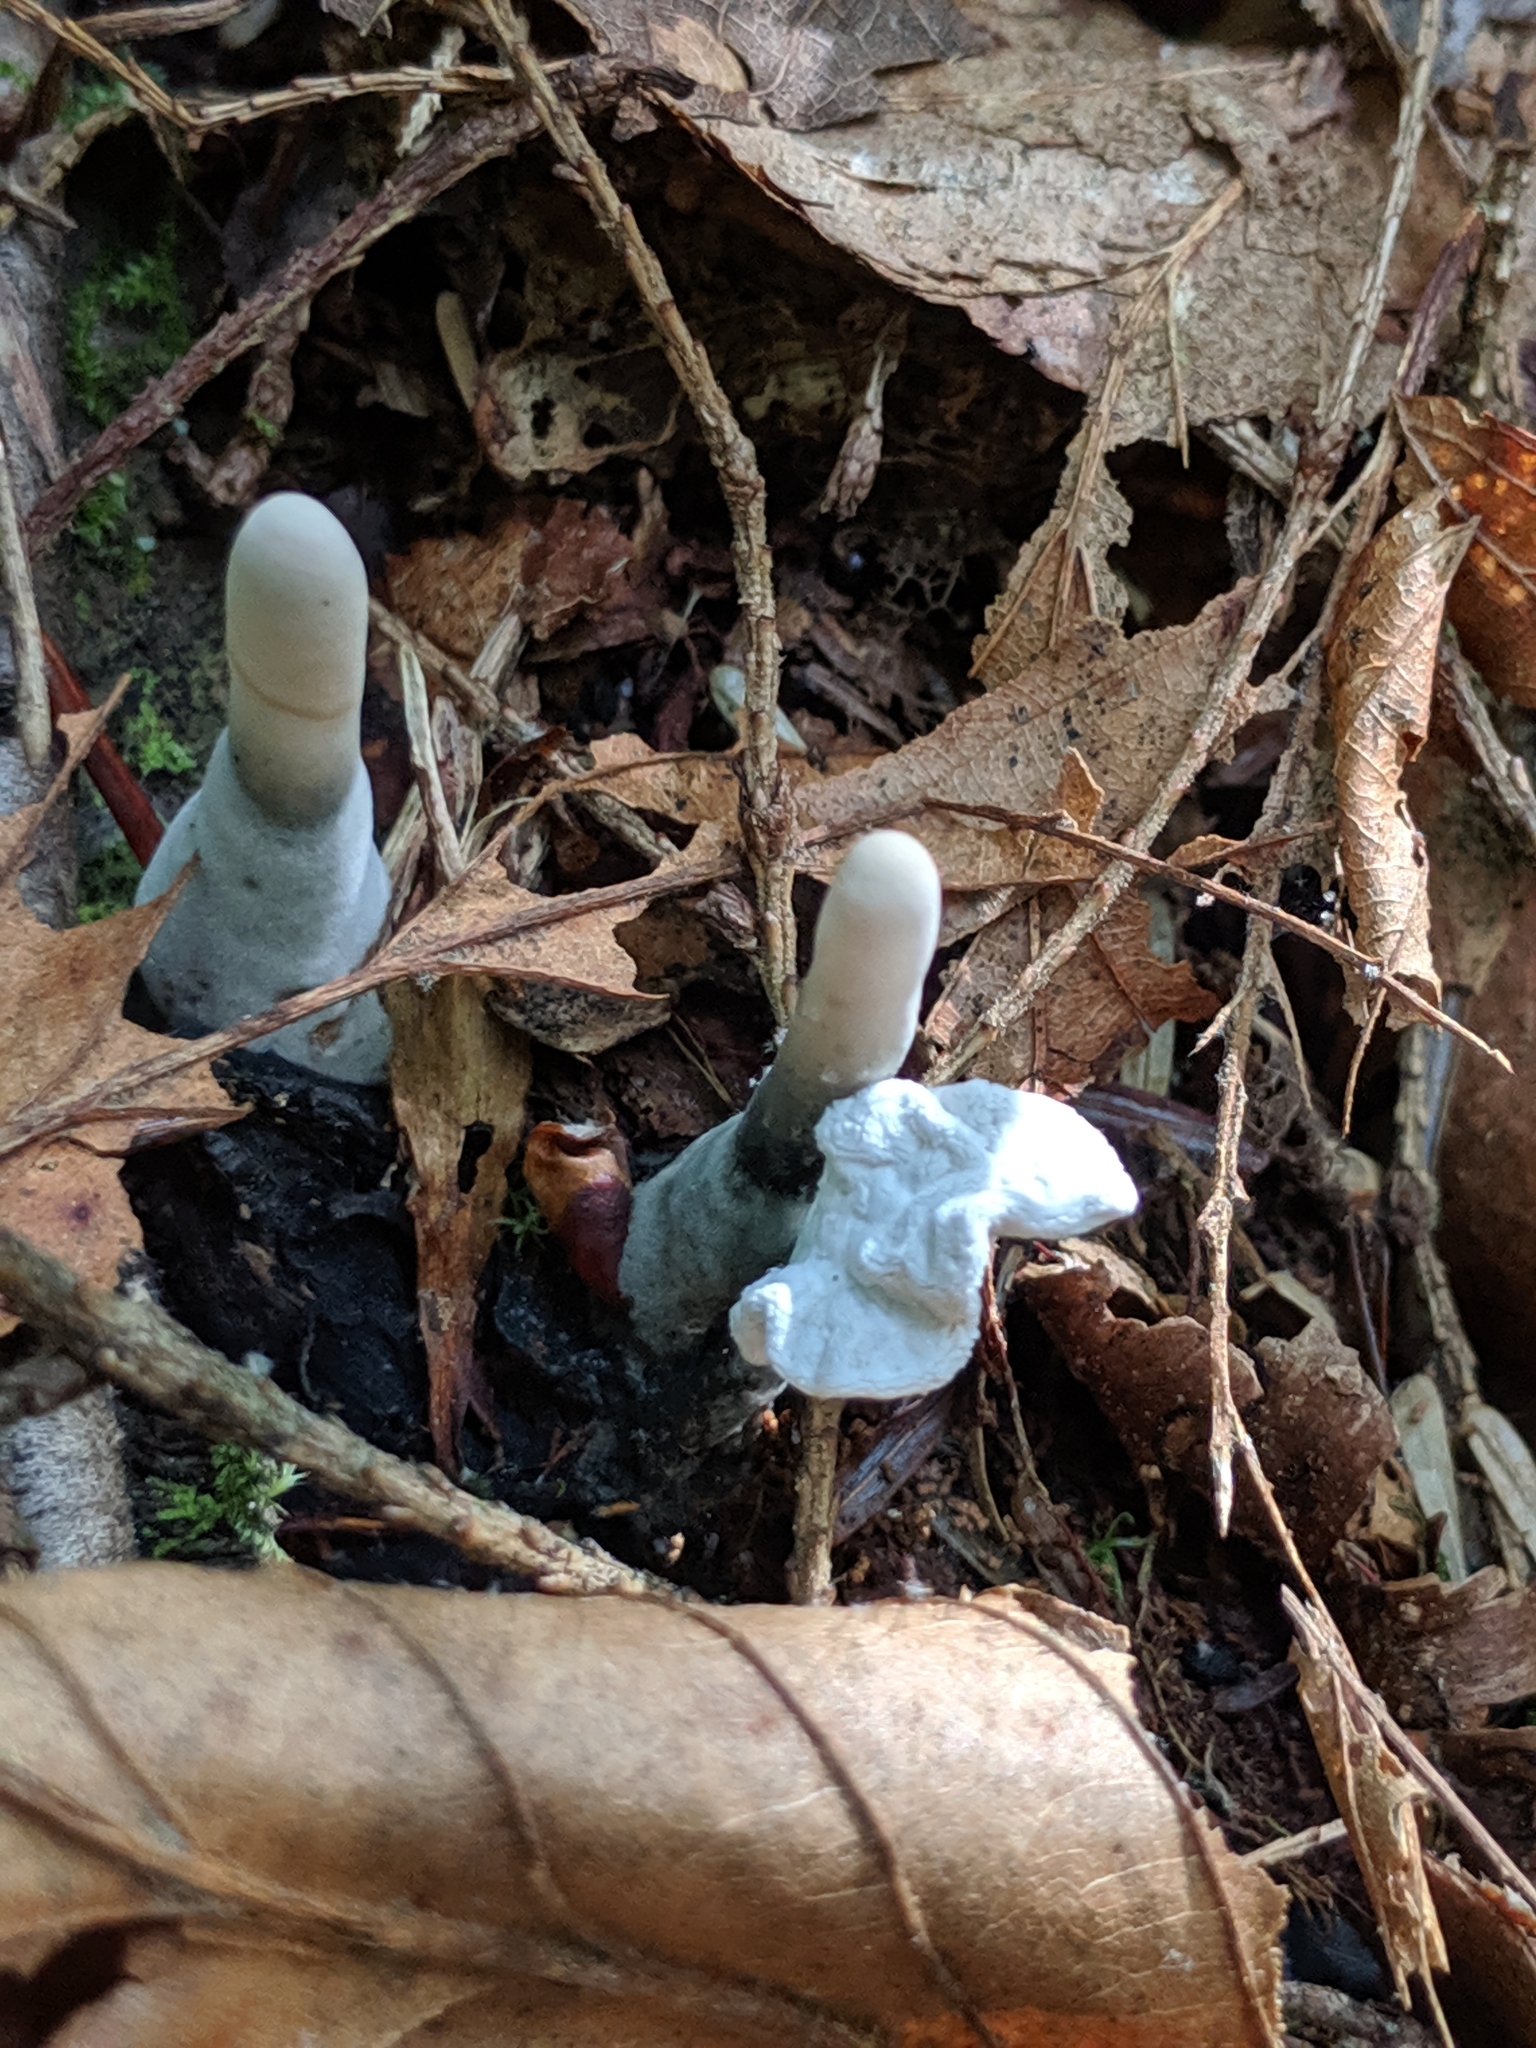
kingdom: Fungi
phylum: Ascomycota
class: Sordariomycetes
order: Xylariales
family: Xylariaceae
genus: Xylaria
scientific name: Xylaria polymorpha
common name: Dead man's fingers
